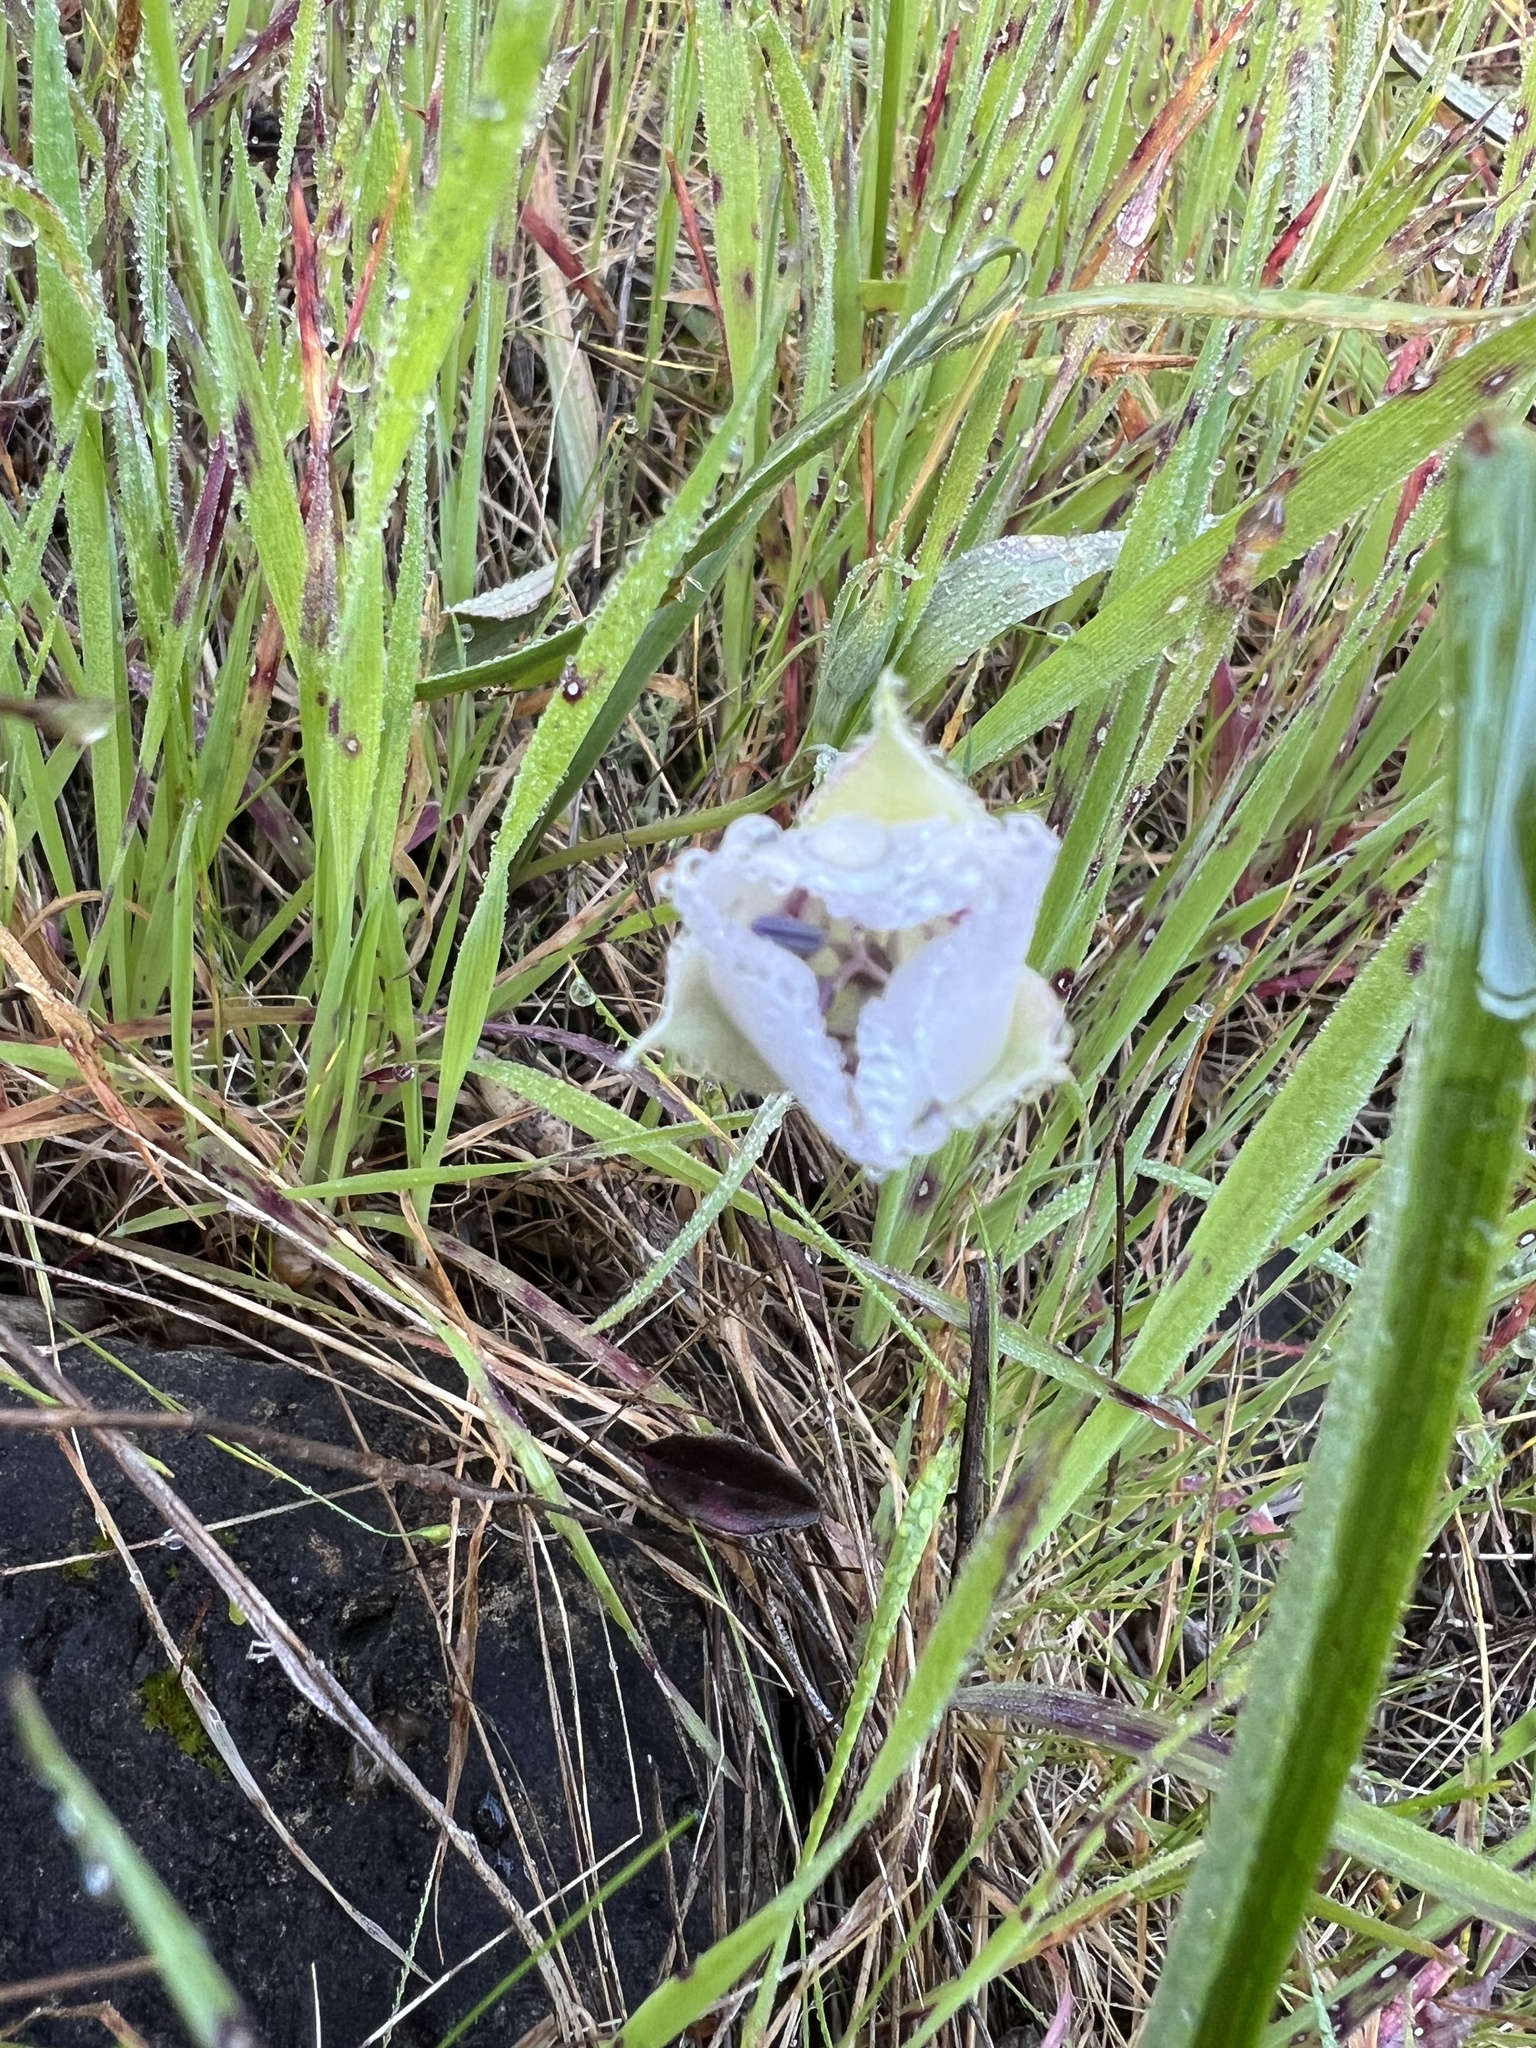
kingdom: Plantae
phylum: Tracheophyta
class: Liliopsida
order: Liliales
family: Liliaceae
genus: Calochortus
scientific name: Calochortus umbellatus
